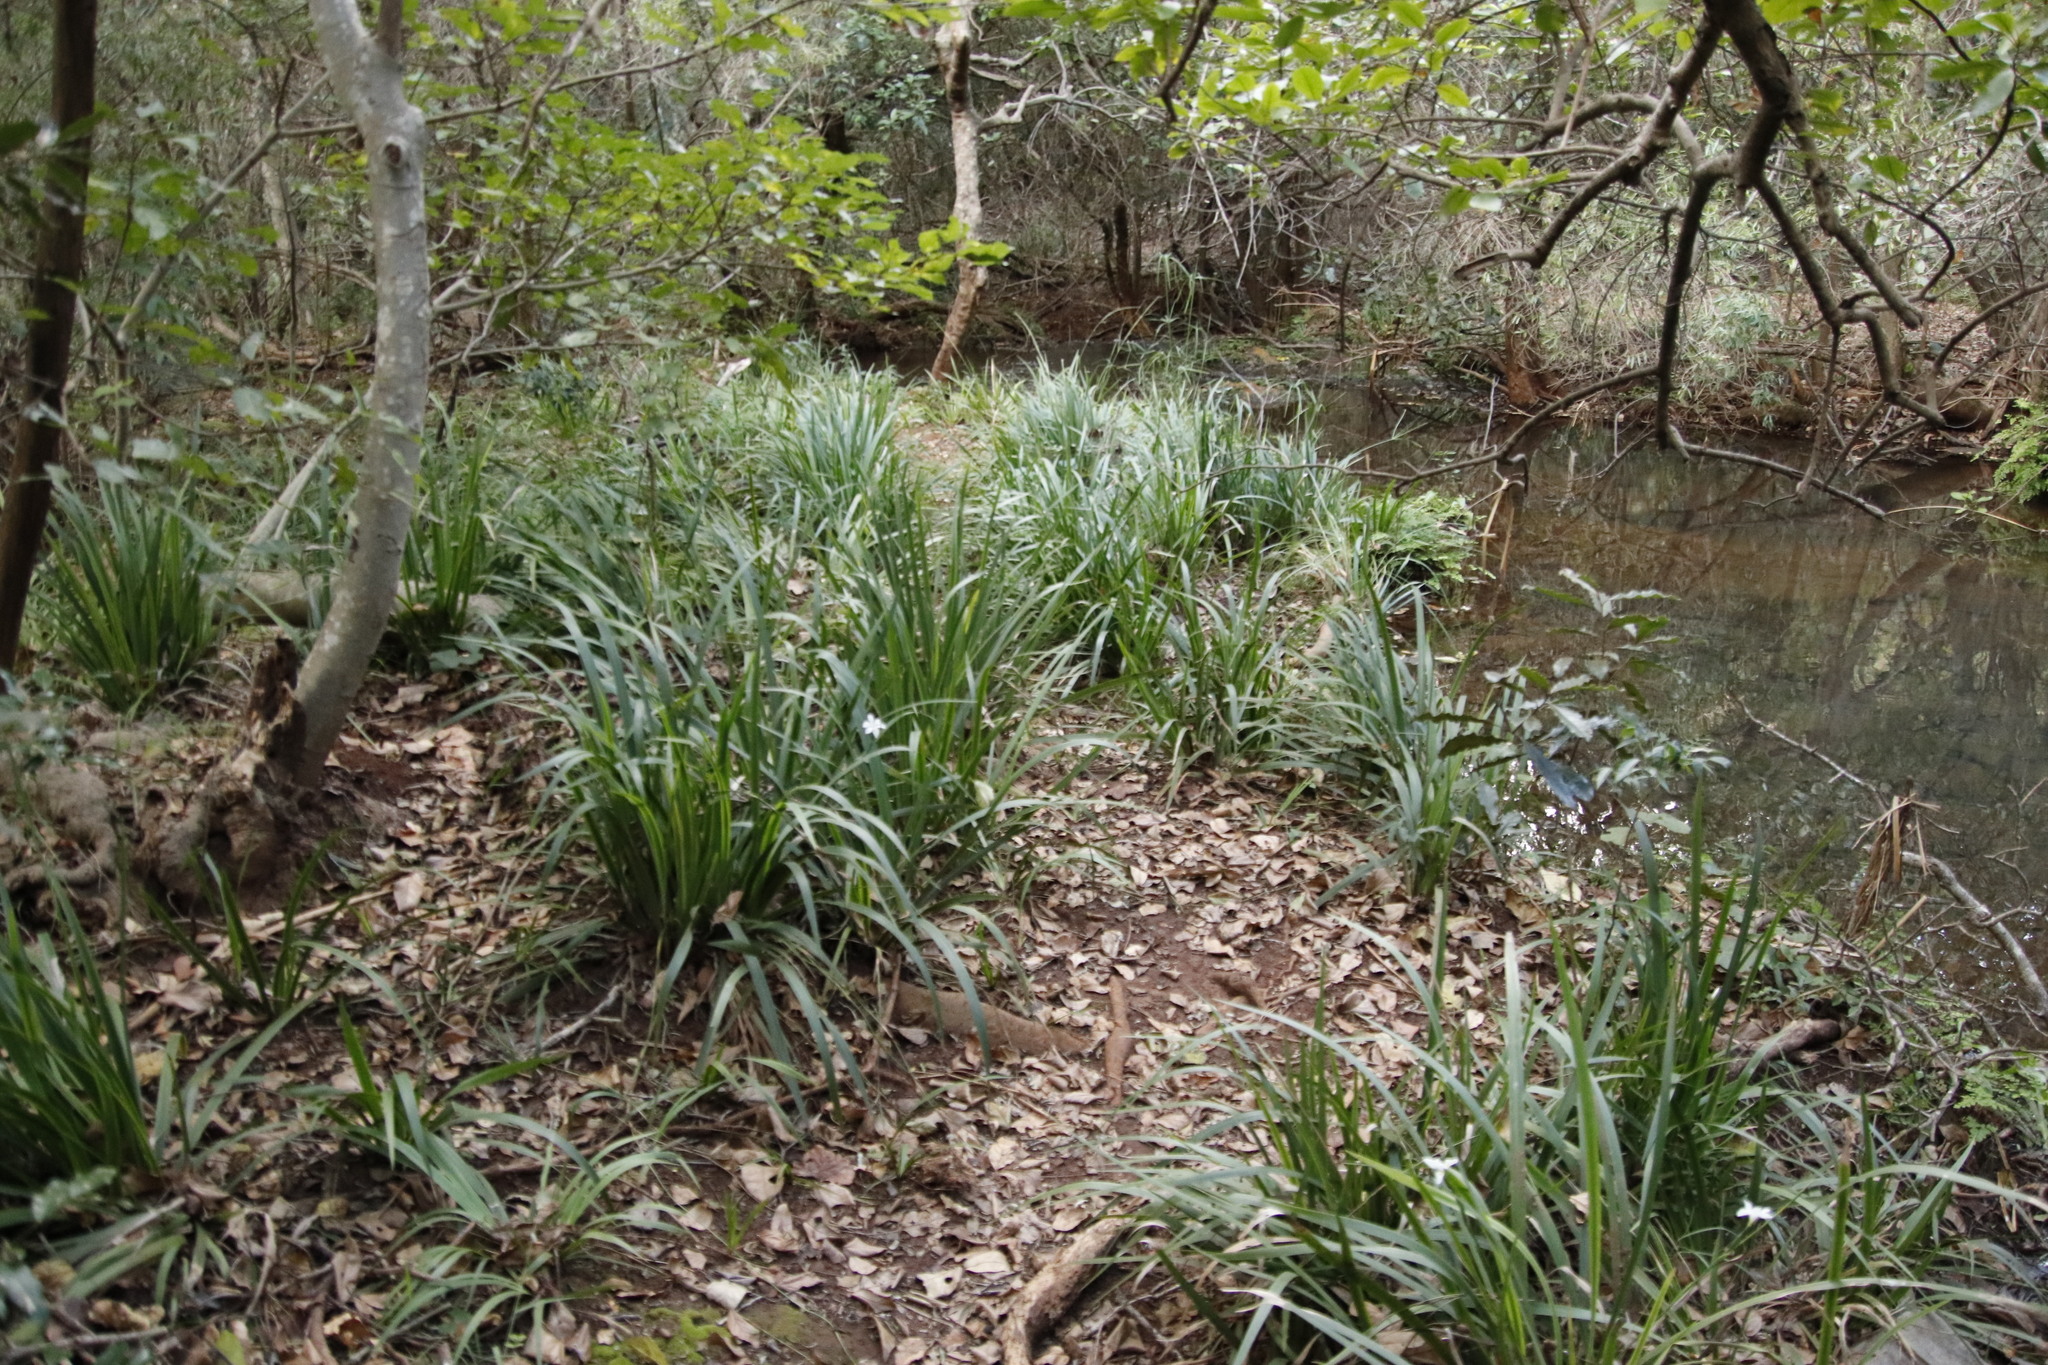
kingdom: Plantae
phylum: Tracheophyta
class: Liliopsida
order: Asparagales
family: Iridaceae
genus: Dietes
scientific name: Dietes iridioides
